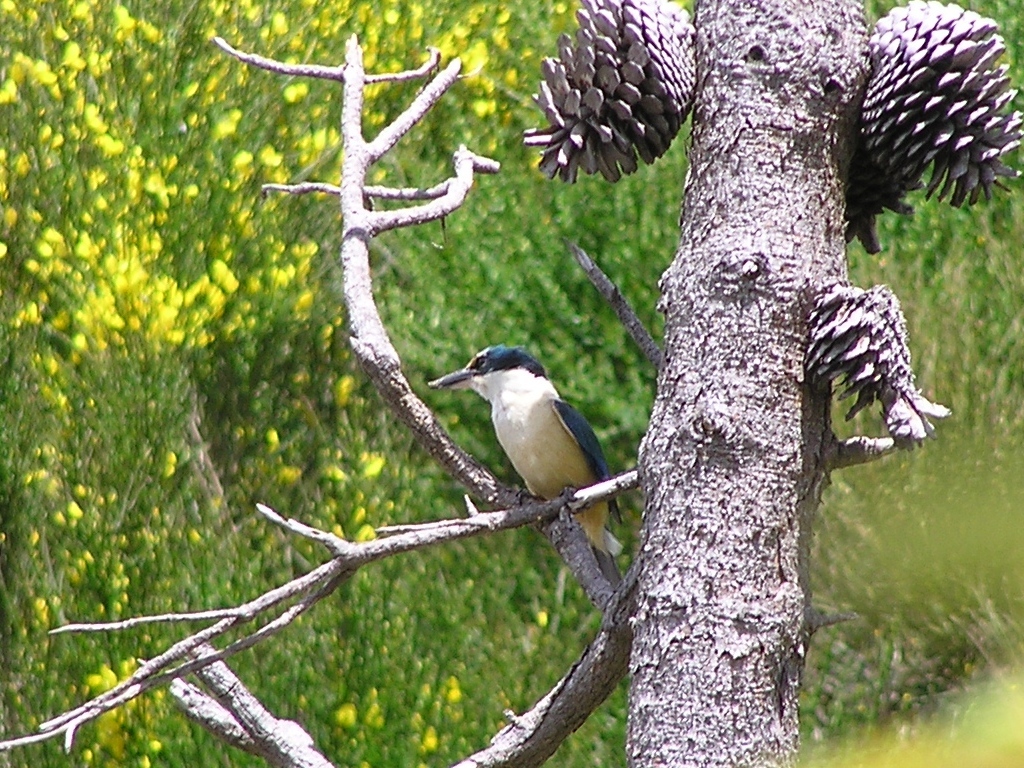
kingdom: Animalia
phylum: Chordata
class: Aves
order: Coraciiformes
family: Alcedinidae
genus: Todiramphus
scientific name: Todiramphus sanctus
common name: Sacred kingfisher
